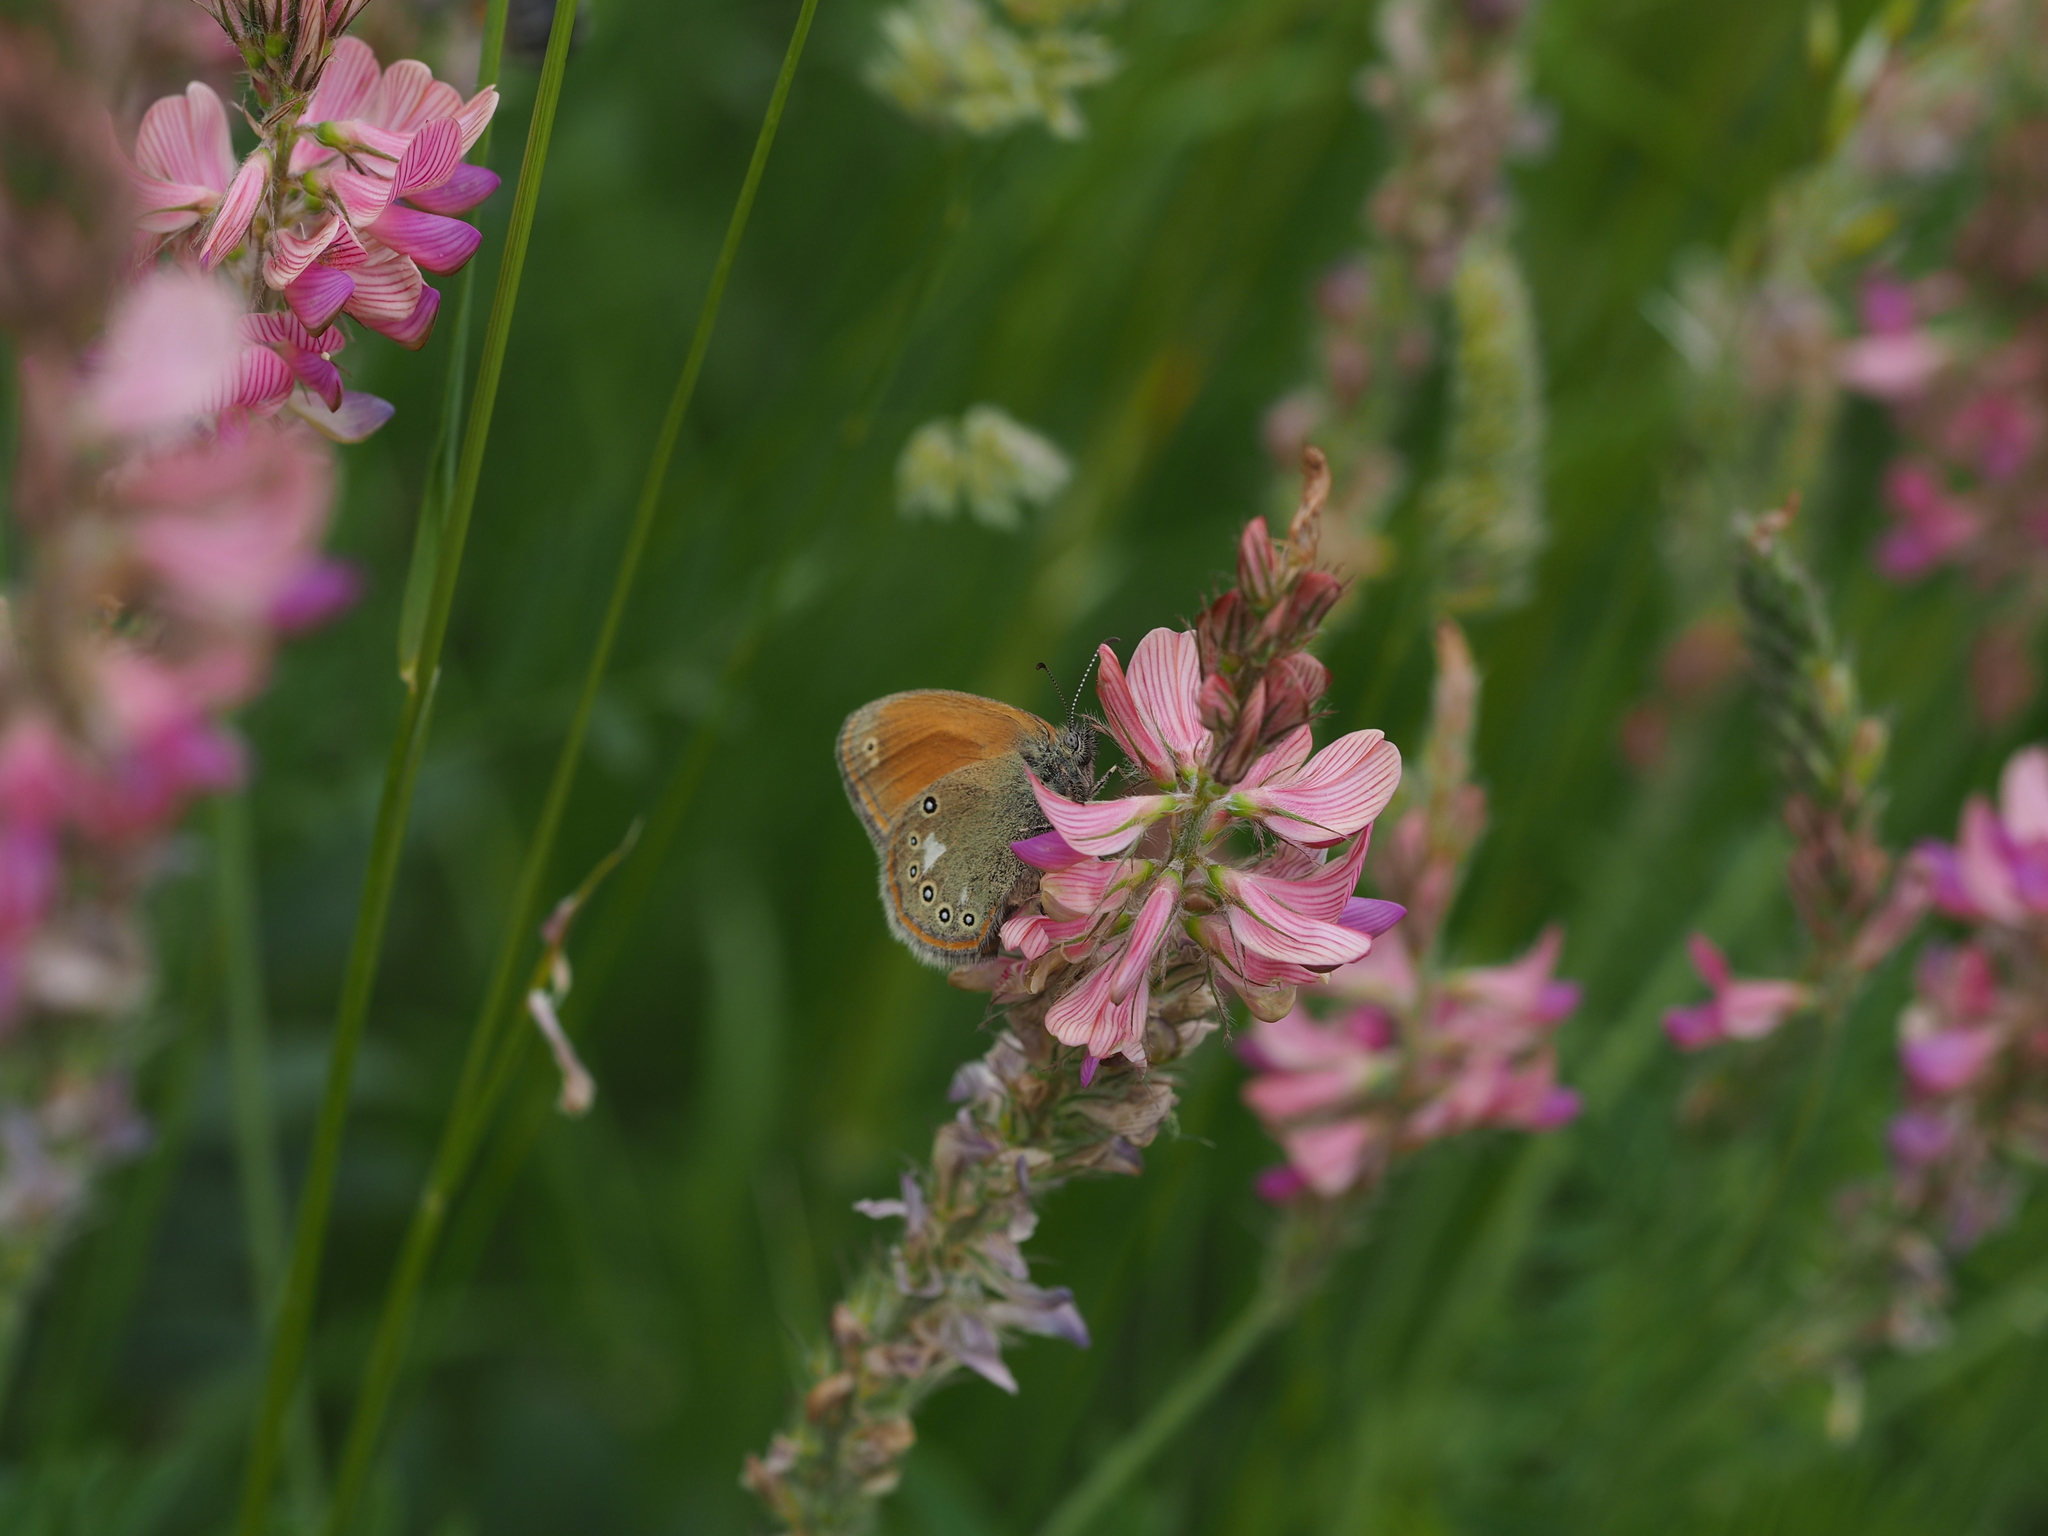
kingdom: Animalia
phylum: Arthropoda
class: Insecta
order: Lepidoptera
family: Nymphalidae
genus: Coenonympha
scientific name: Coenonympha iphis
